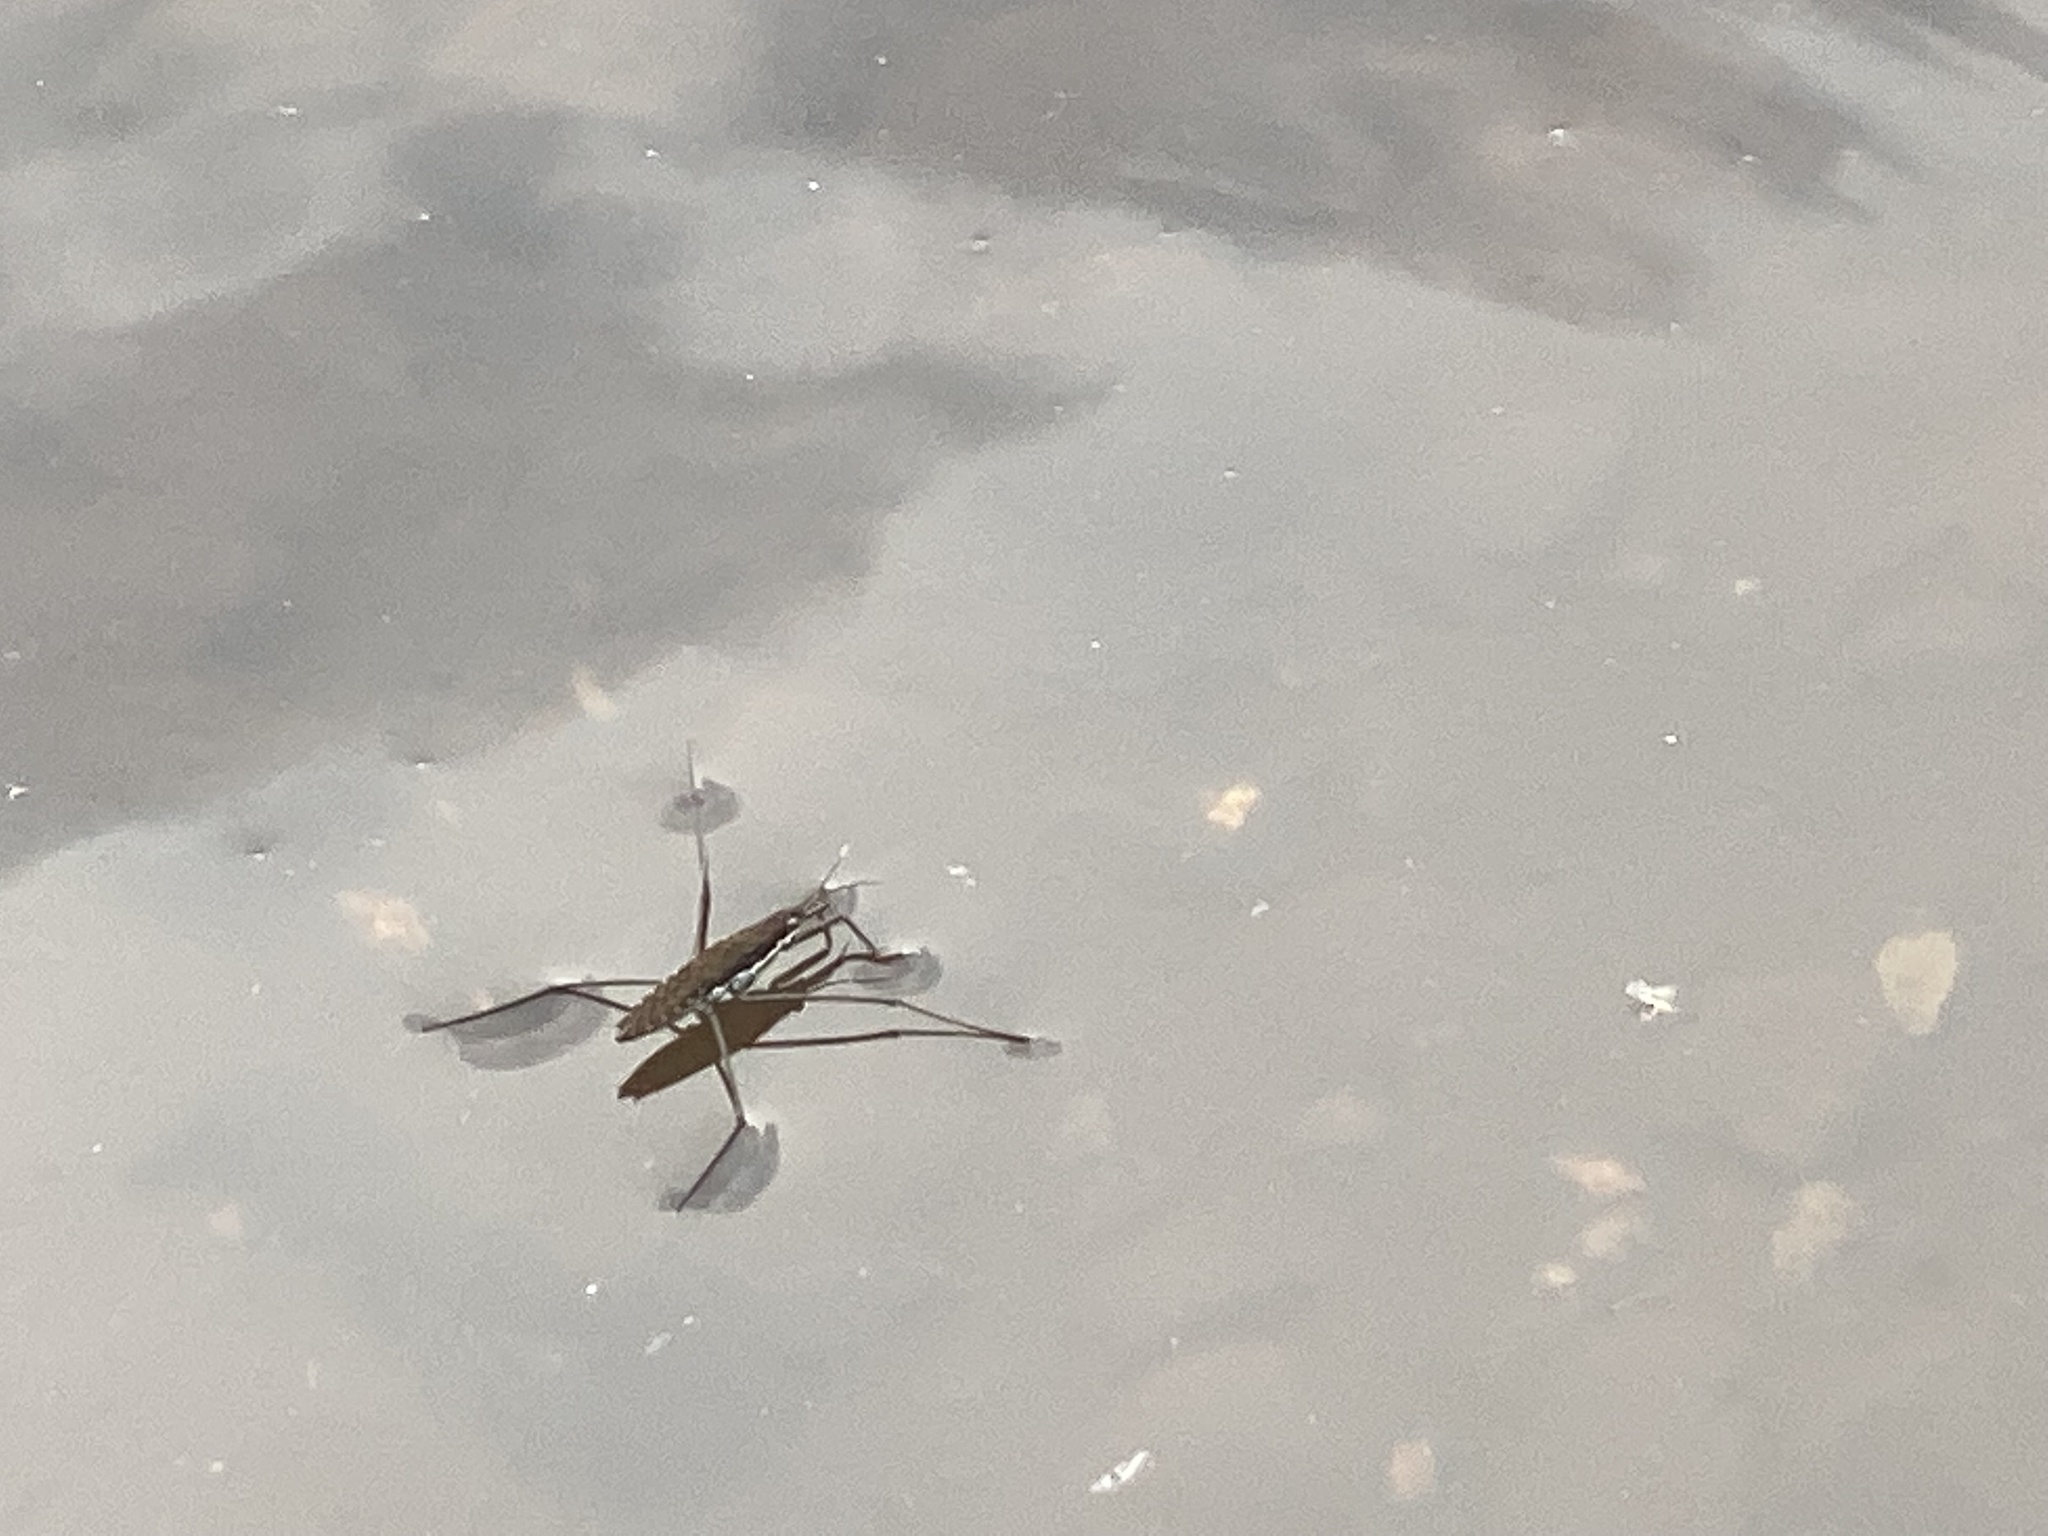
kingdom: Animalia
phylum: Arthropoda
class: Insecta
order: Hemiptera
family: Gerridae
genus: Aquarius
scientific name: Aquarius remigis
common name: Common water strider
